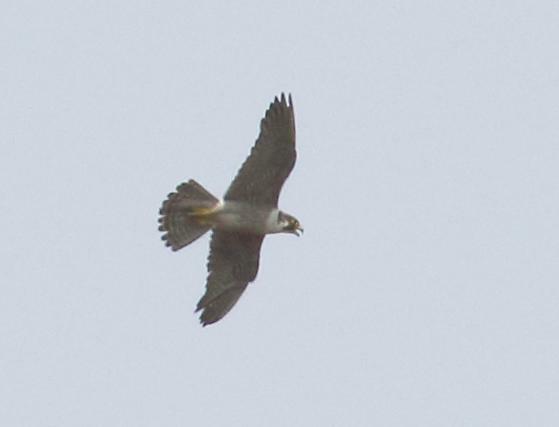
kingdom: Animalia
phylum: Chordata
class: Aves
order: Falconiformes
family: Falconidae
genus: Falco
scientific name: Falco peregrinus
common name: Peregrine falcon
